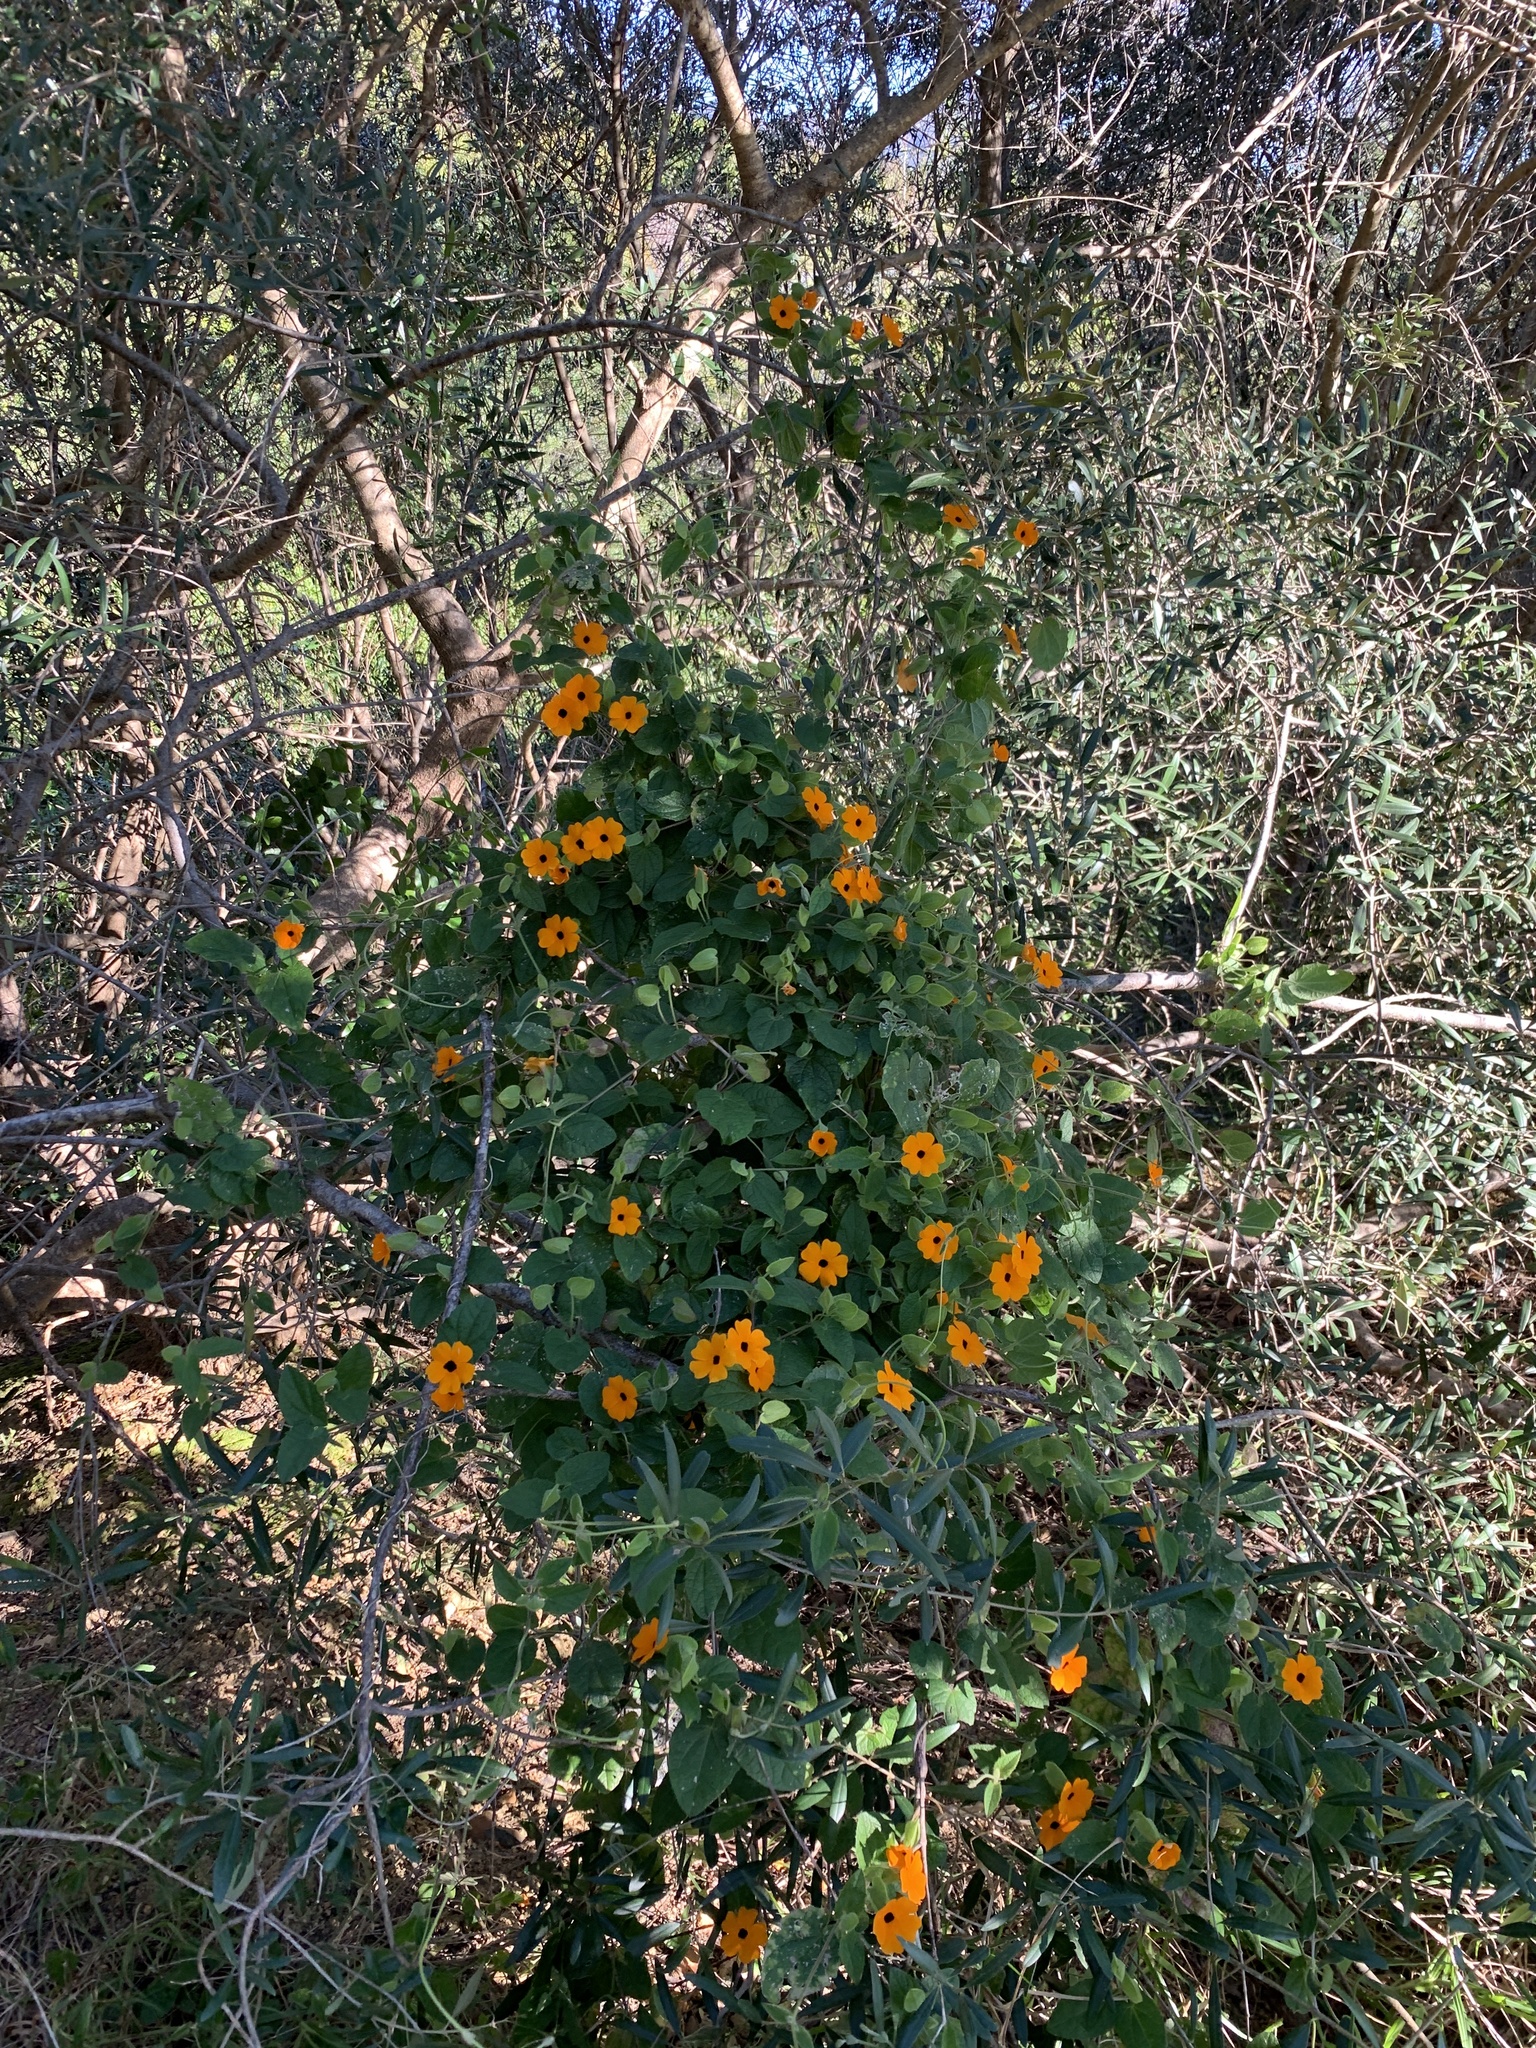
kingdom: Plantae
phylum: Tracheophyta
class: Magnoliopsida
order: Lamiales
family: Acanthaceae
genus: Thunbergia
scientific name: Thunbergia alata
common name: Blackeyed susan vine
